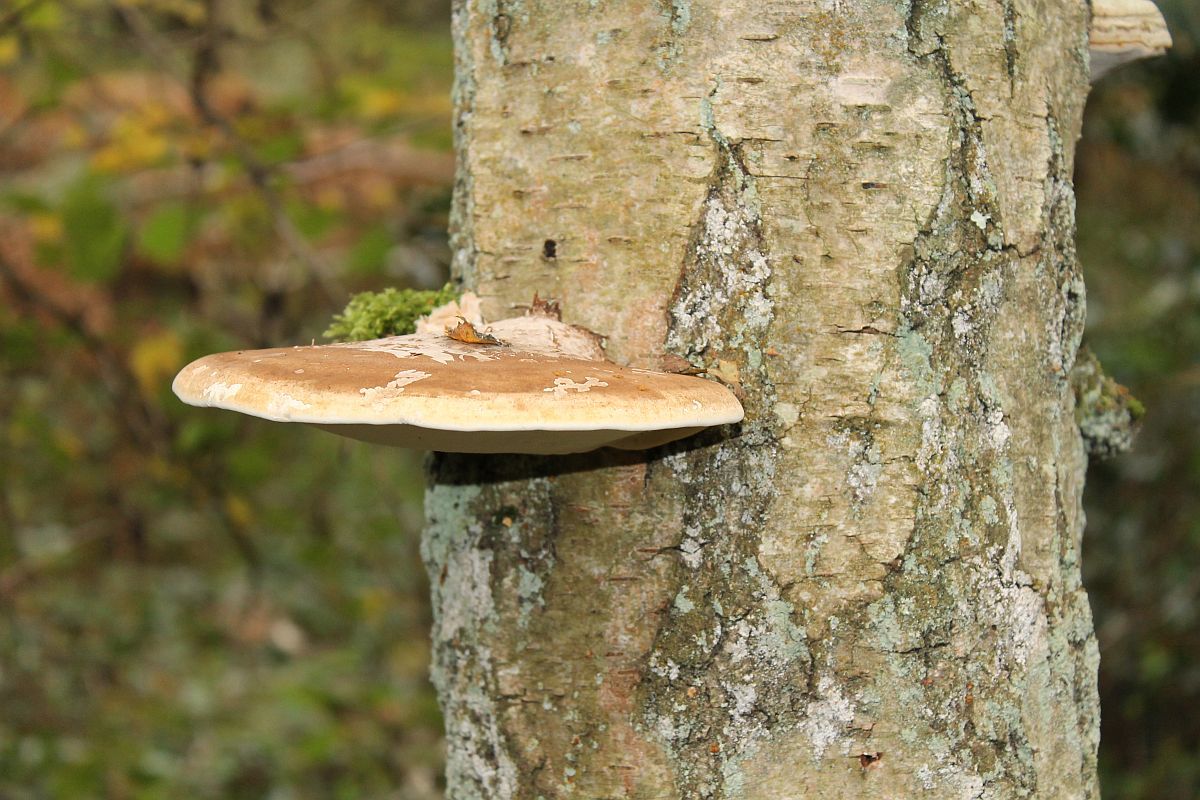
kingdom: Fungi
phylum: Basidiomycota
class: Agaricomycetes
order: Polyporales
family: Fomitopsidaceae
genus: Fomitopsis
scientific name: Fomitopsis betulina
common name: Birch polypore
